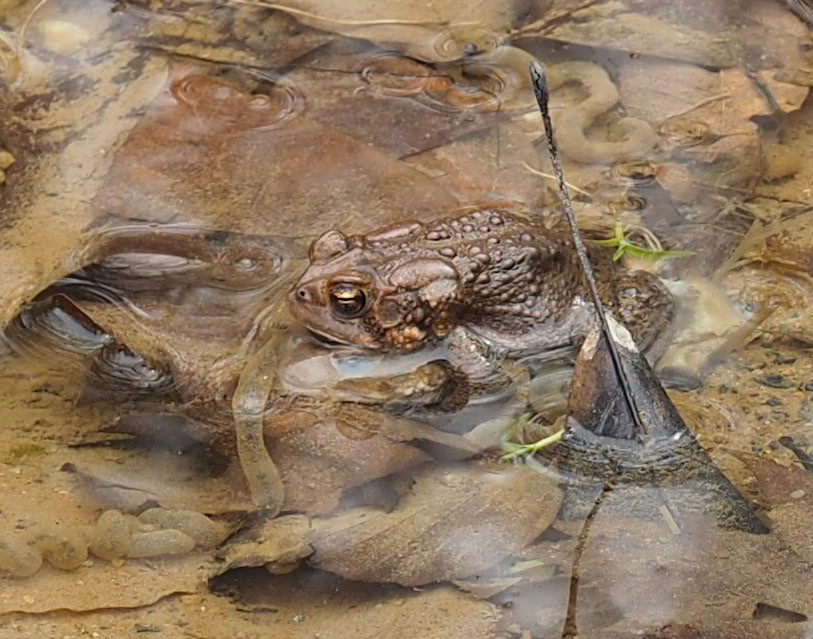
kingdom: Animalia
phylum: Chordata
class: Amphibia
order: Anura
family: Bufonidae
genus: Anaxyrus
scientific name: Anaxyrus americanus
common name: American toad
